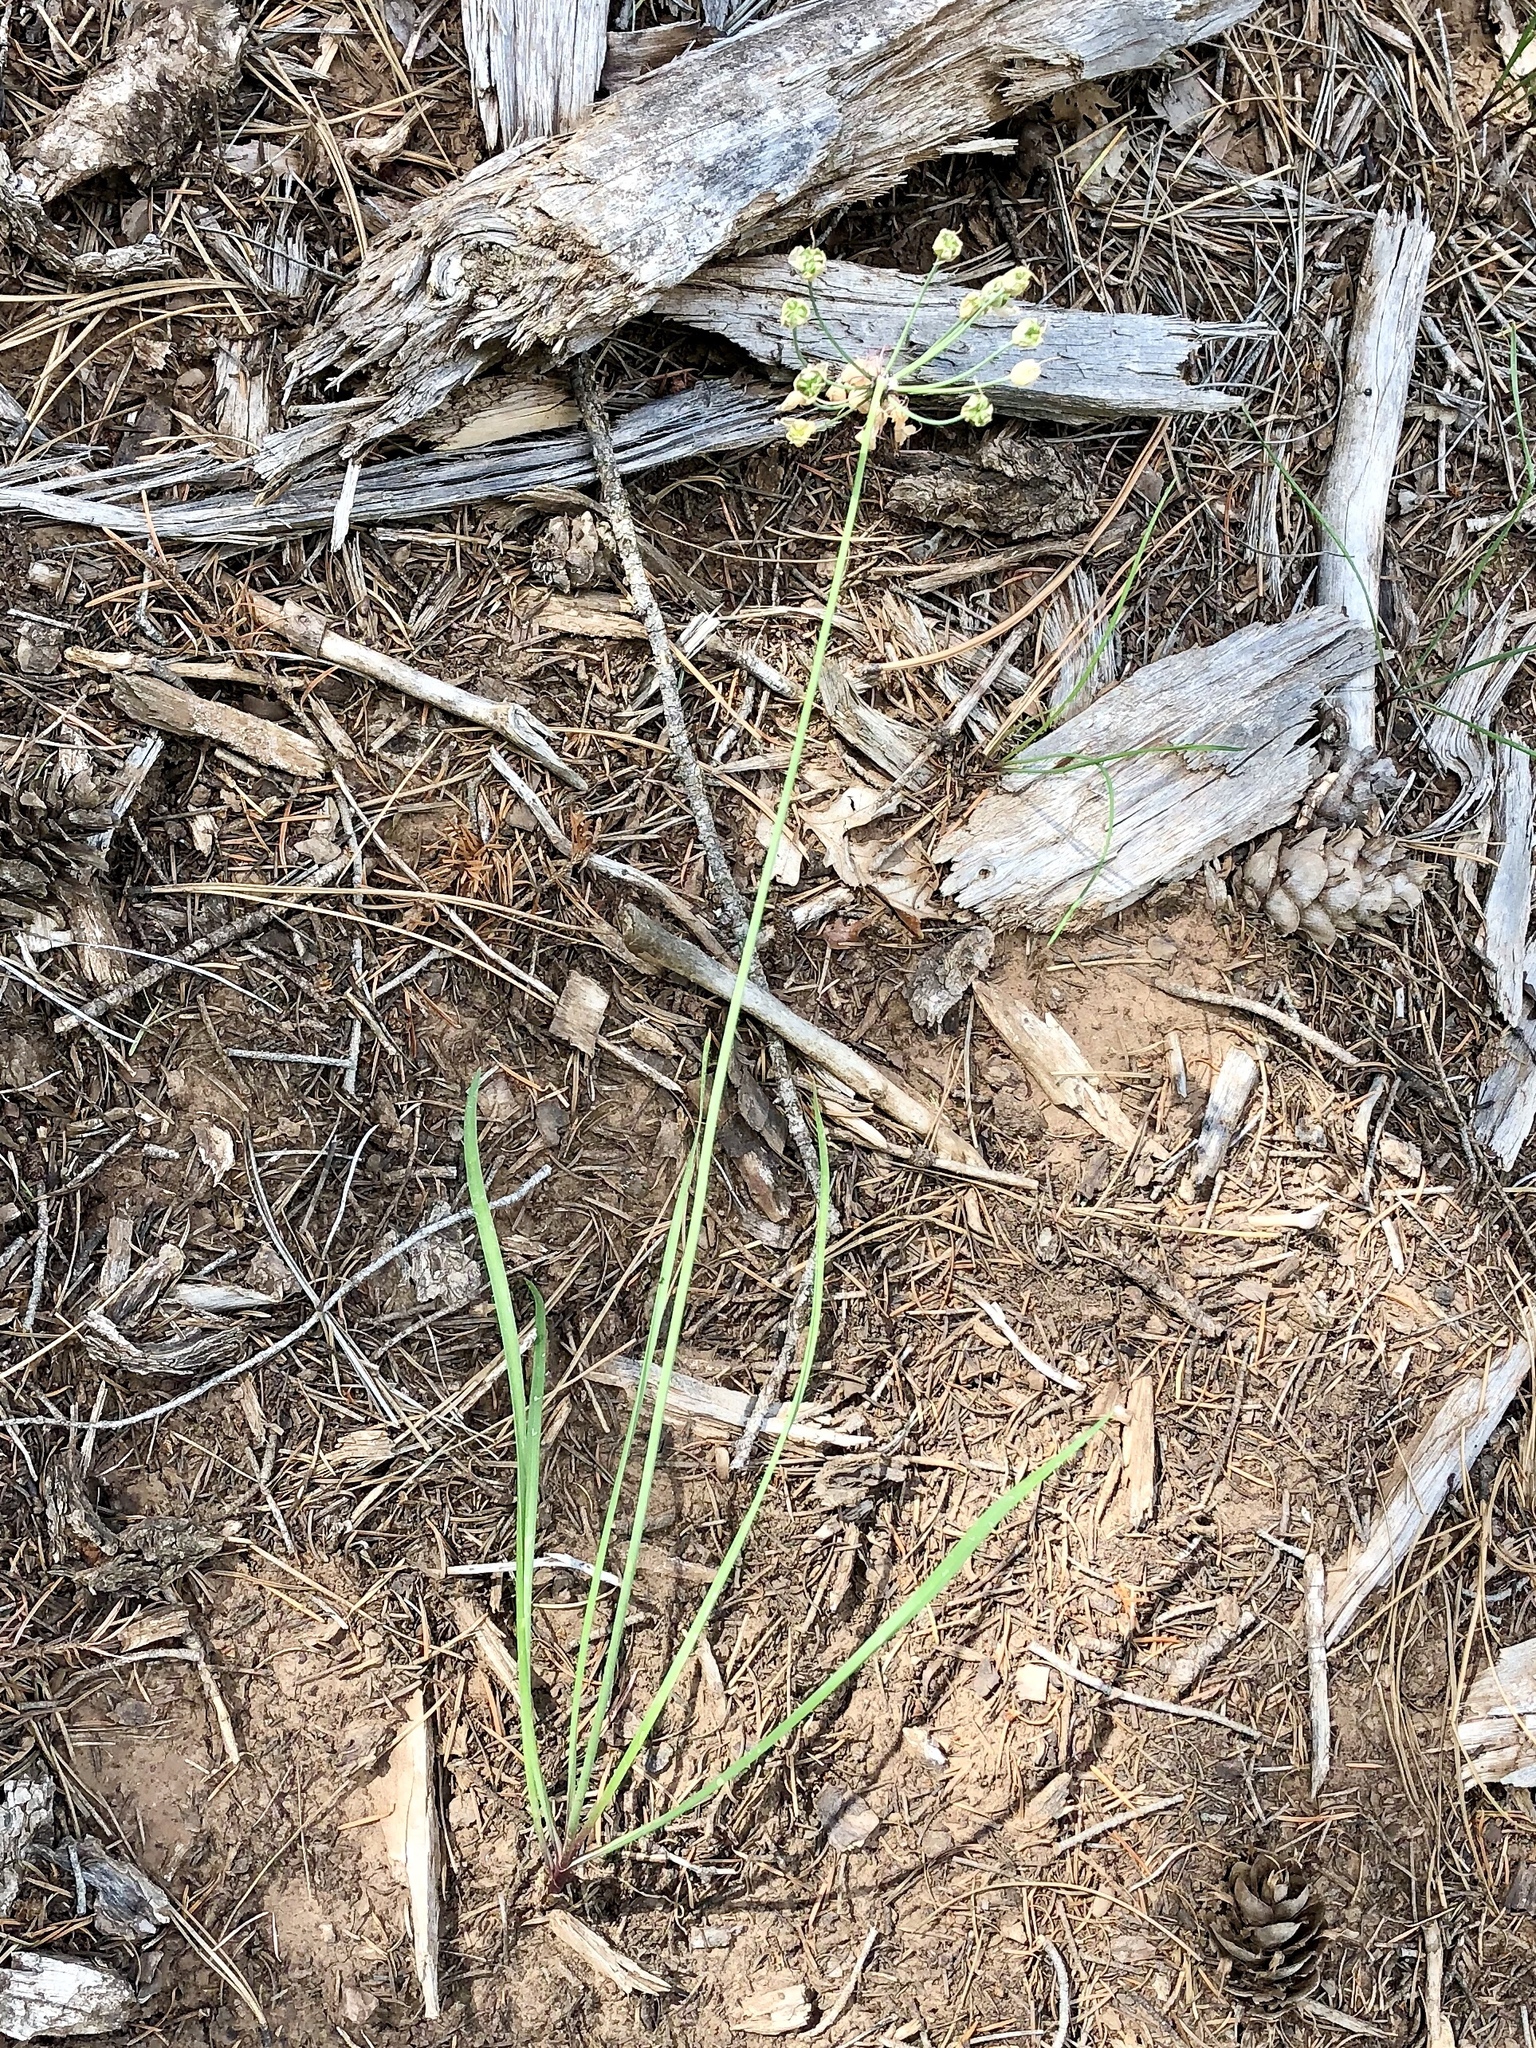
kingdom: Plantae
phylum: Tracheophyta
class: Liliopsida
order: Asparagales
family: Amaryllidaceae
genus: Allium
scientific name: Allium cernuum
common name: Nodding onion
